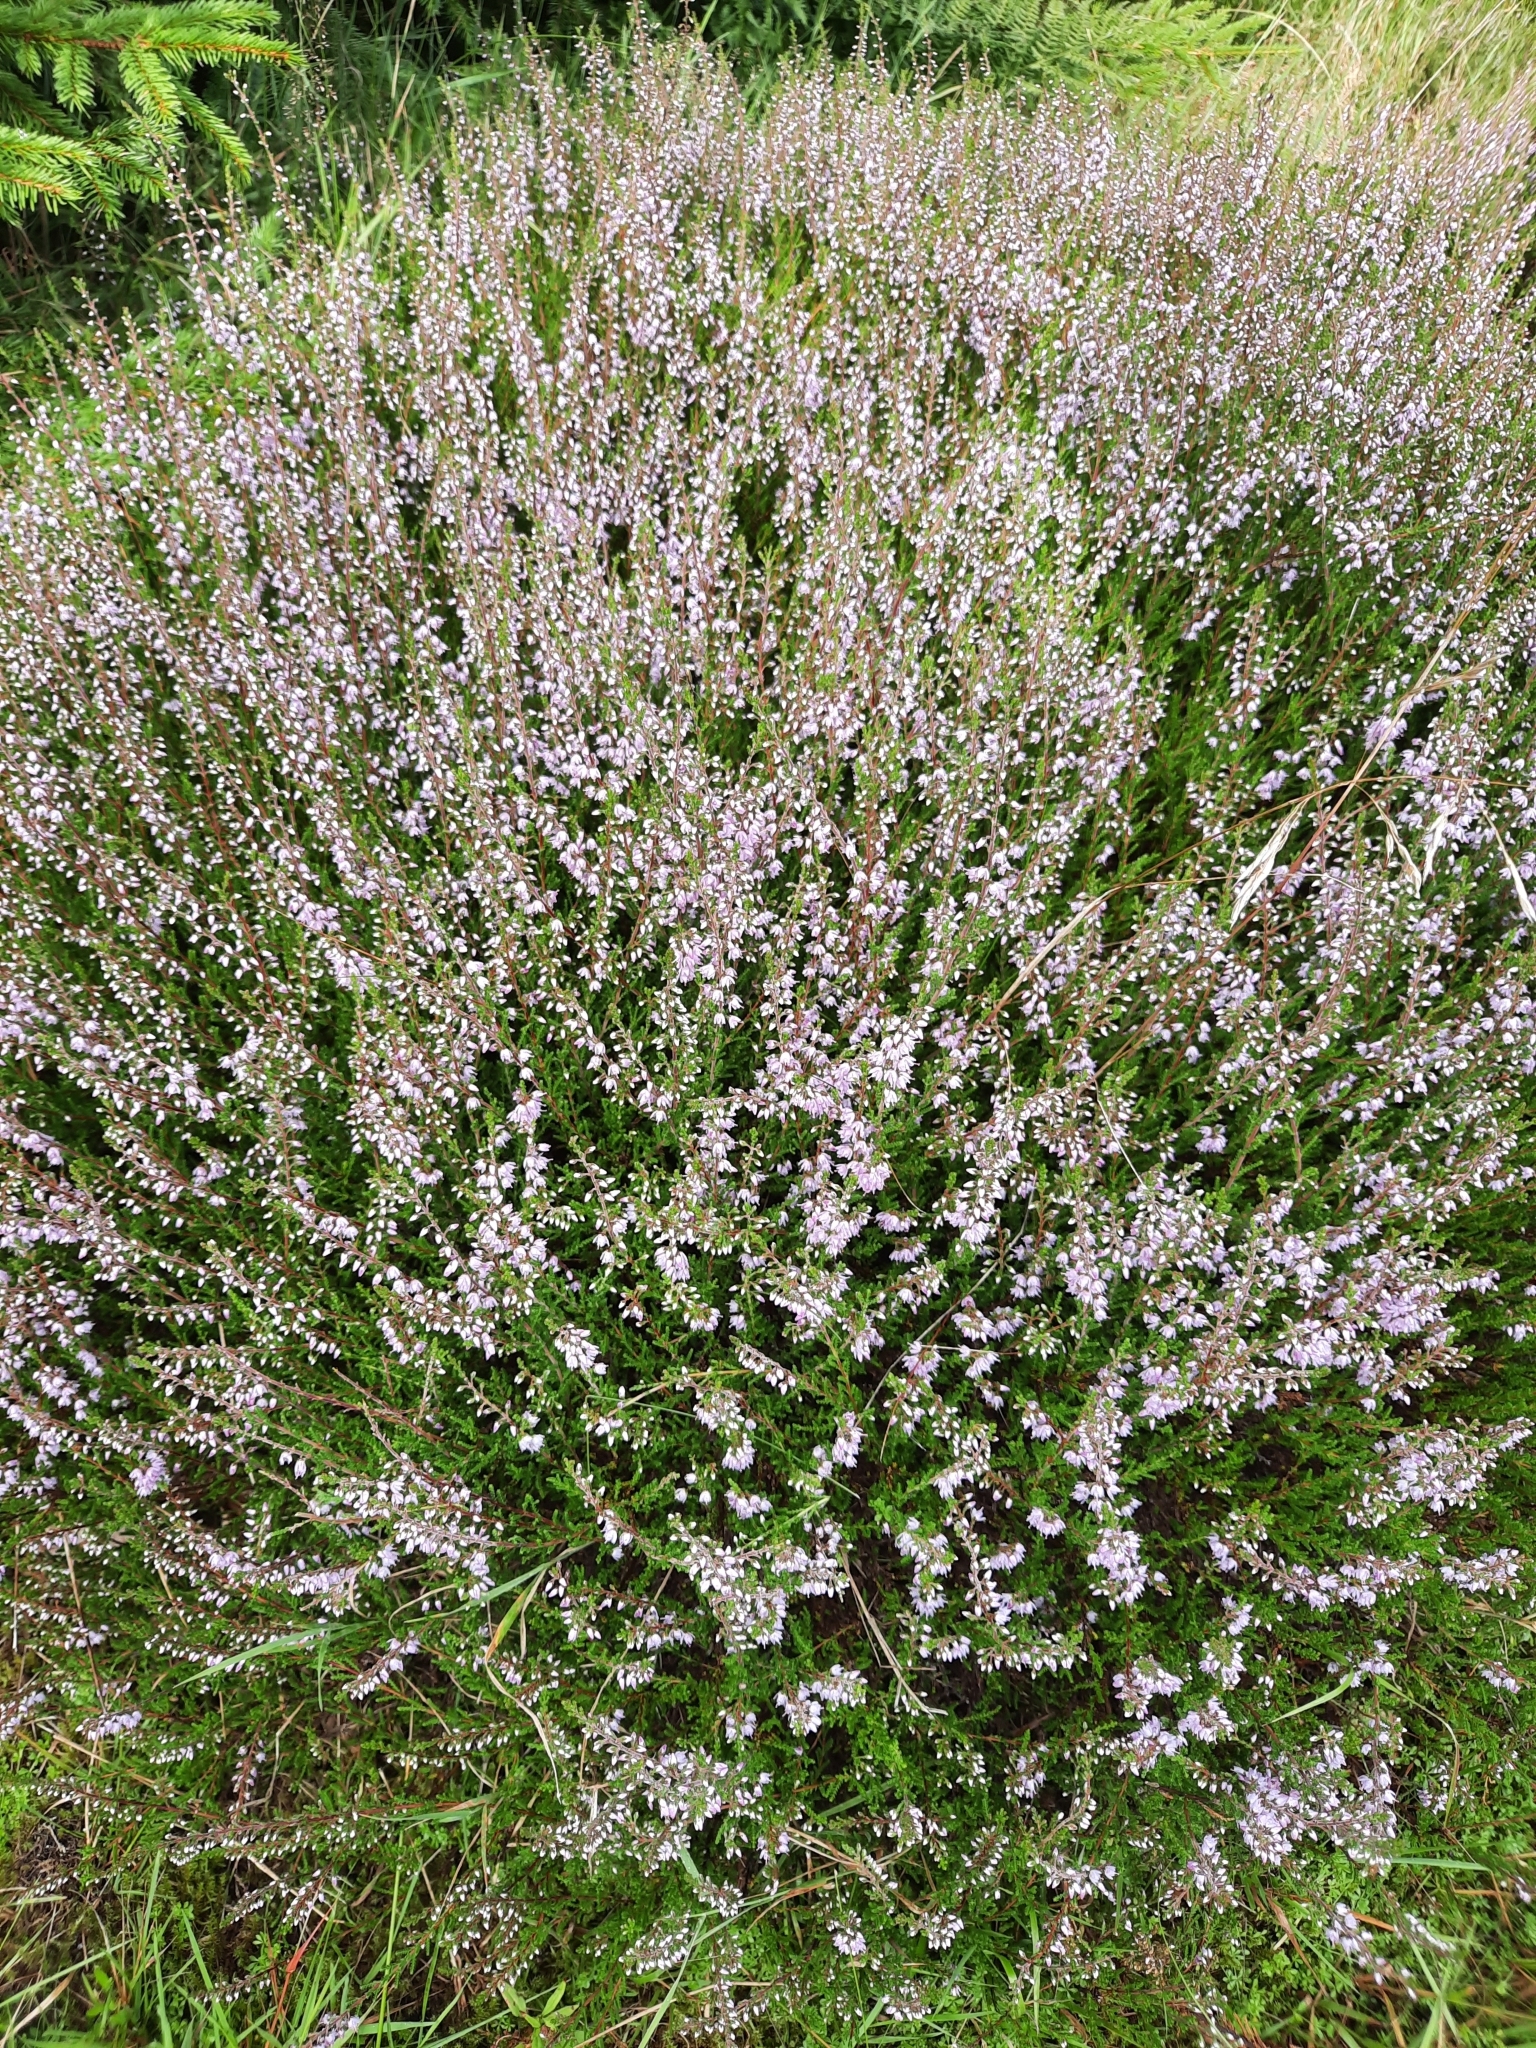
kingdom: Plantae
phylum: Tracheophyta
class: Magnoliopsida
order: Ericales
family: Ericaceae
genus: Calluna
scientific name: Calluna vulgaris
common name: Heather
